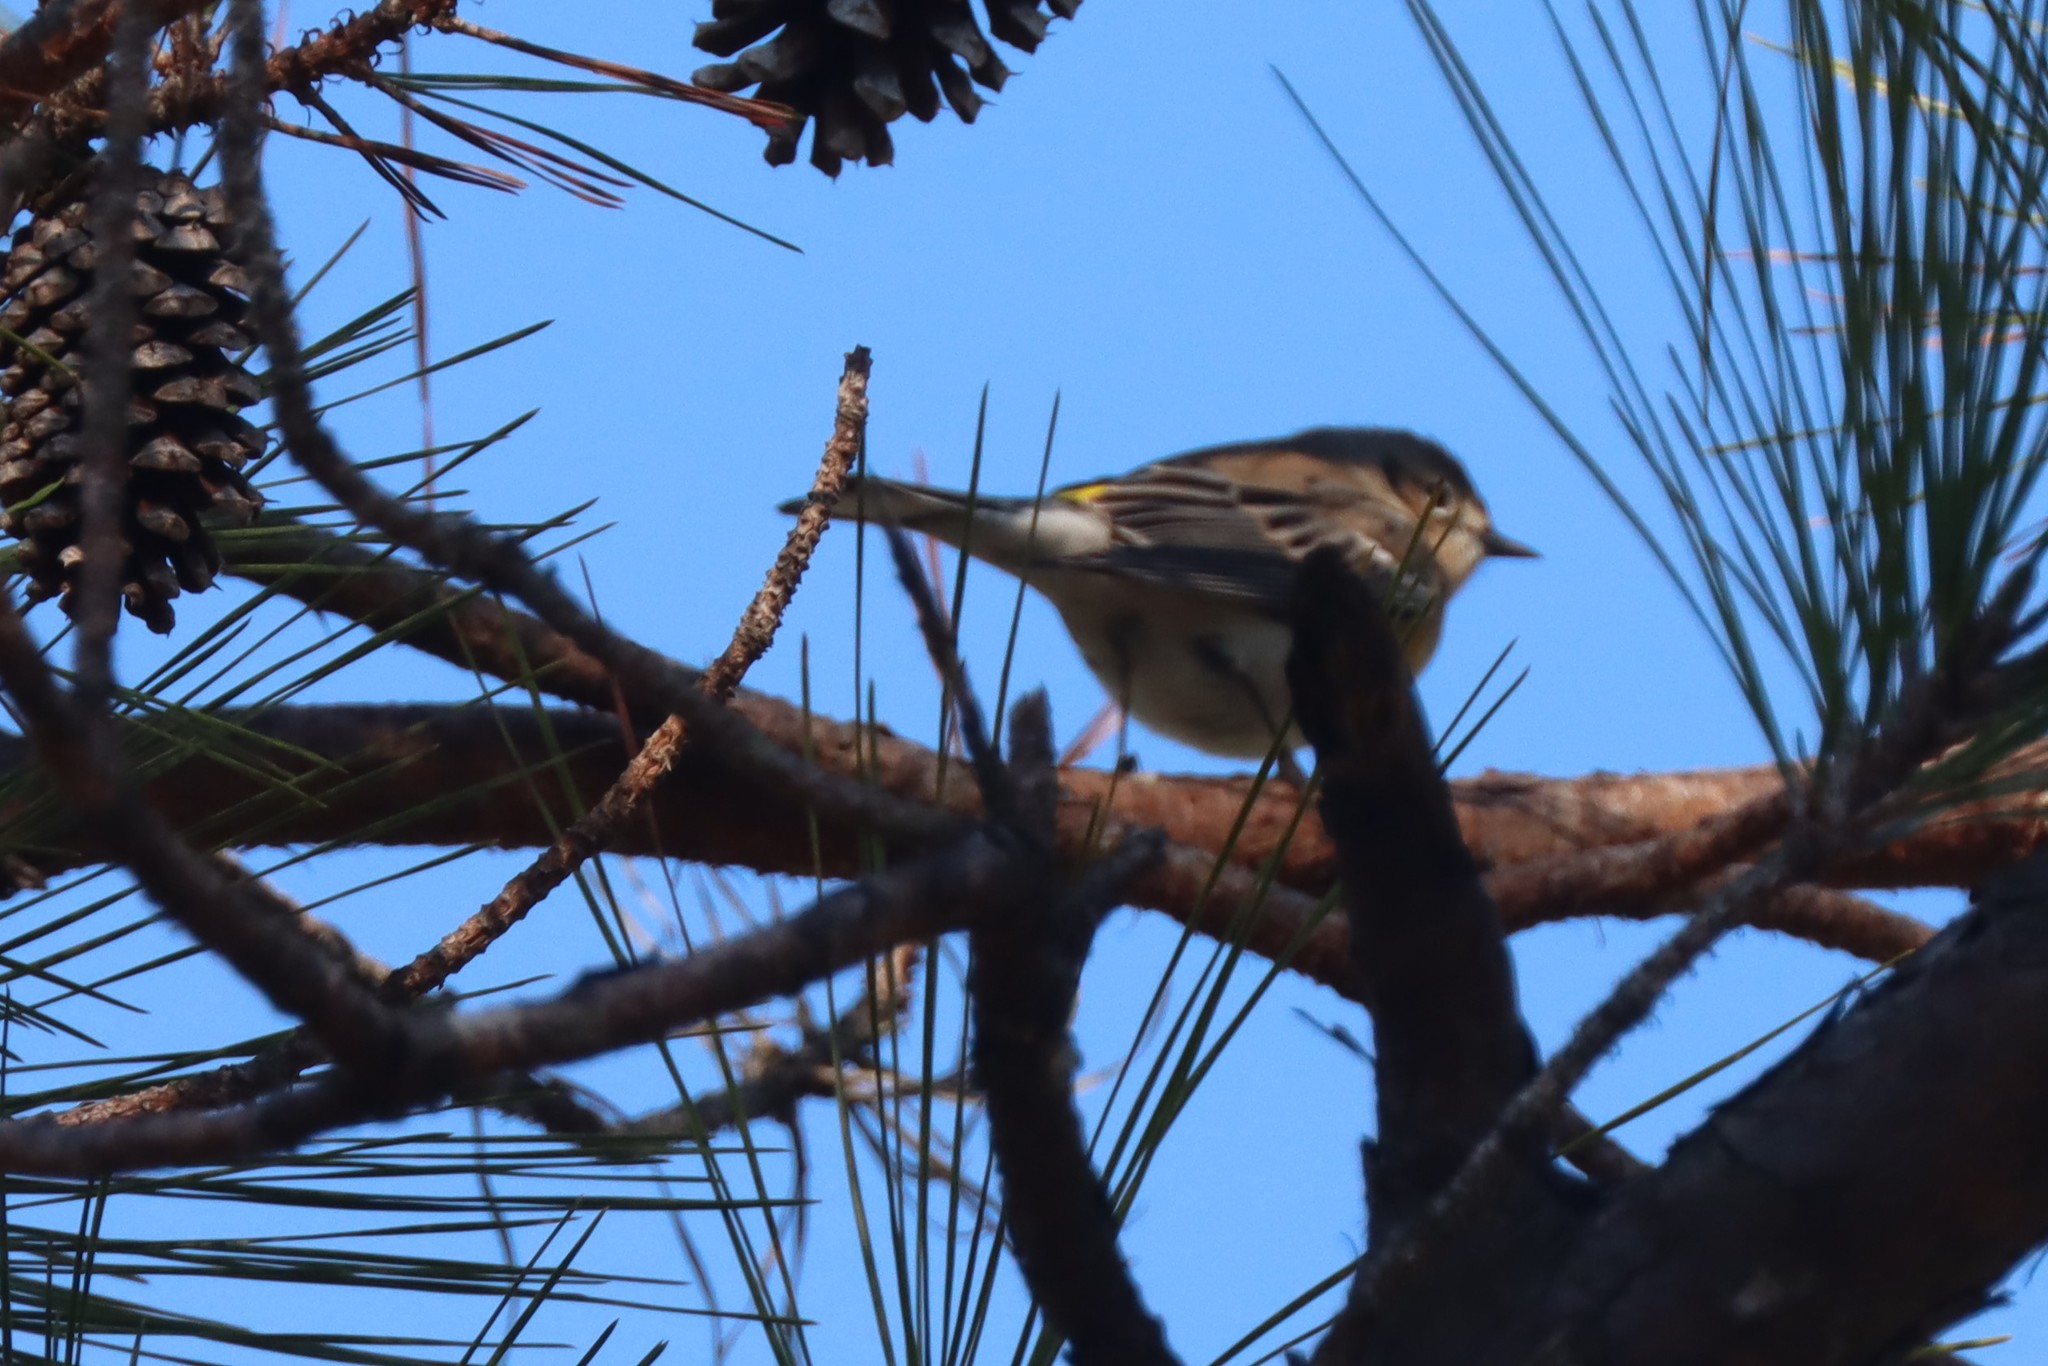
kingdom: Animalia
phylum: Chordata
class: Aves
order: Passeriformes
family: Parulidae
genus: Setophaga
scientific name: Setophaga coronata
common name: Myrtle warbler
